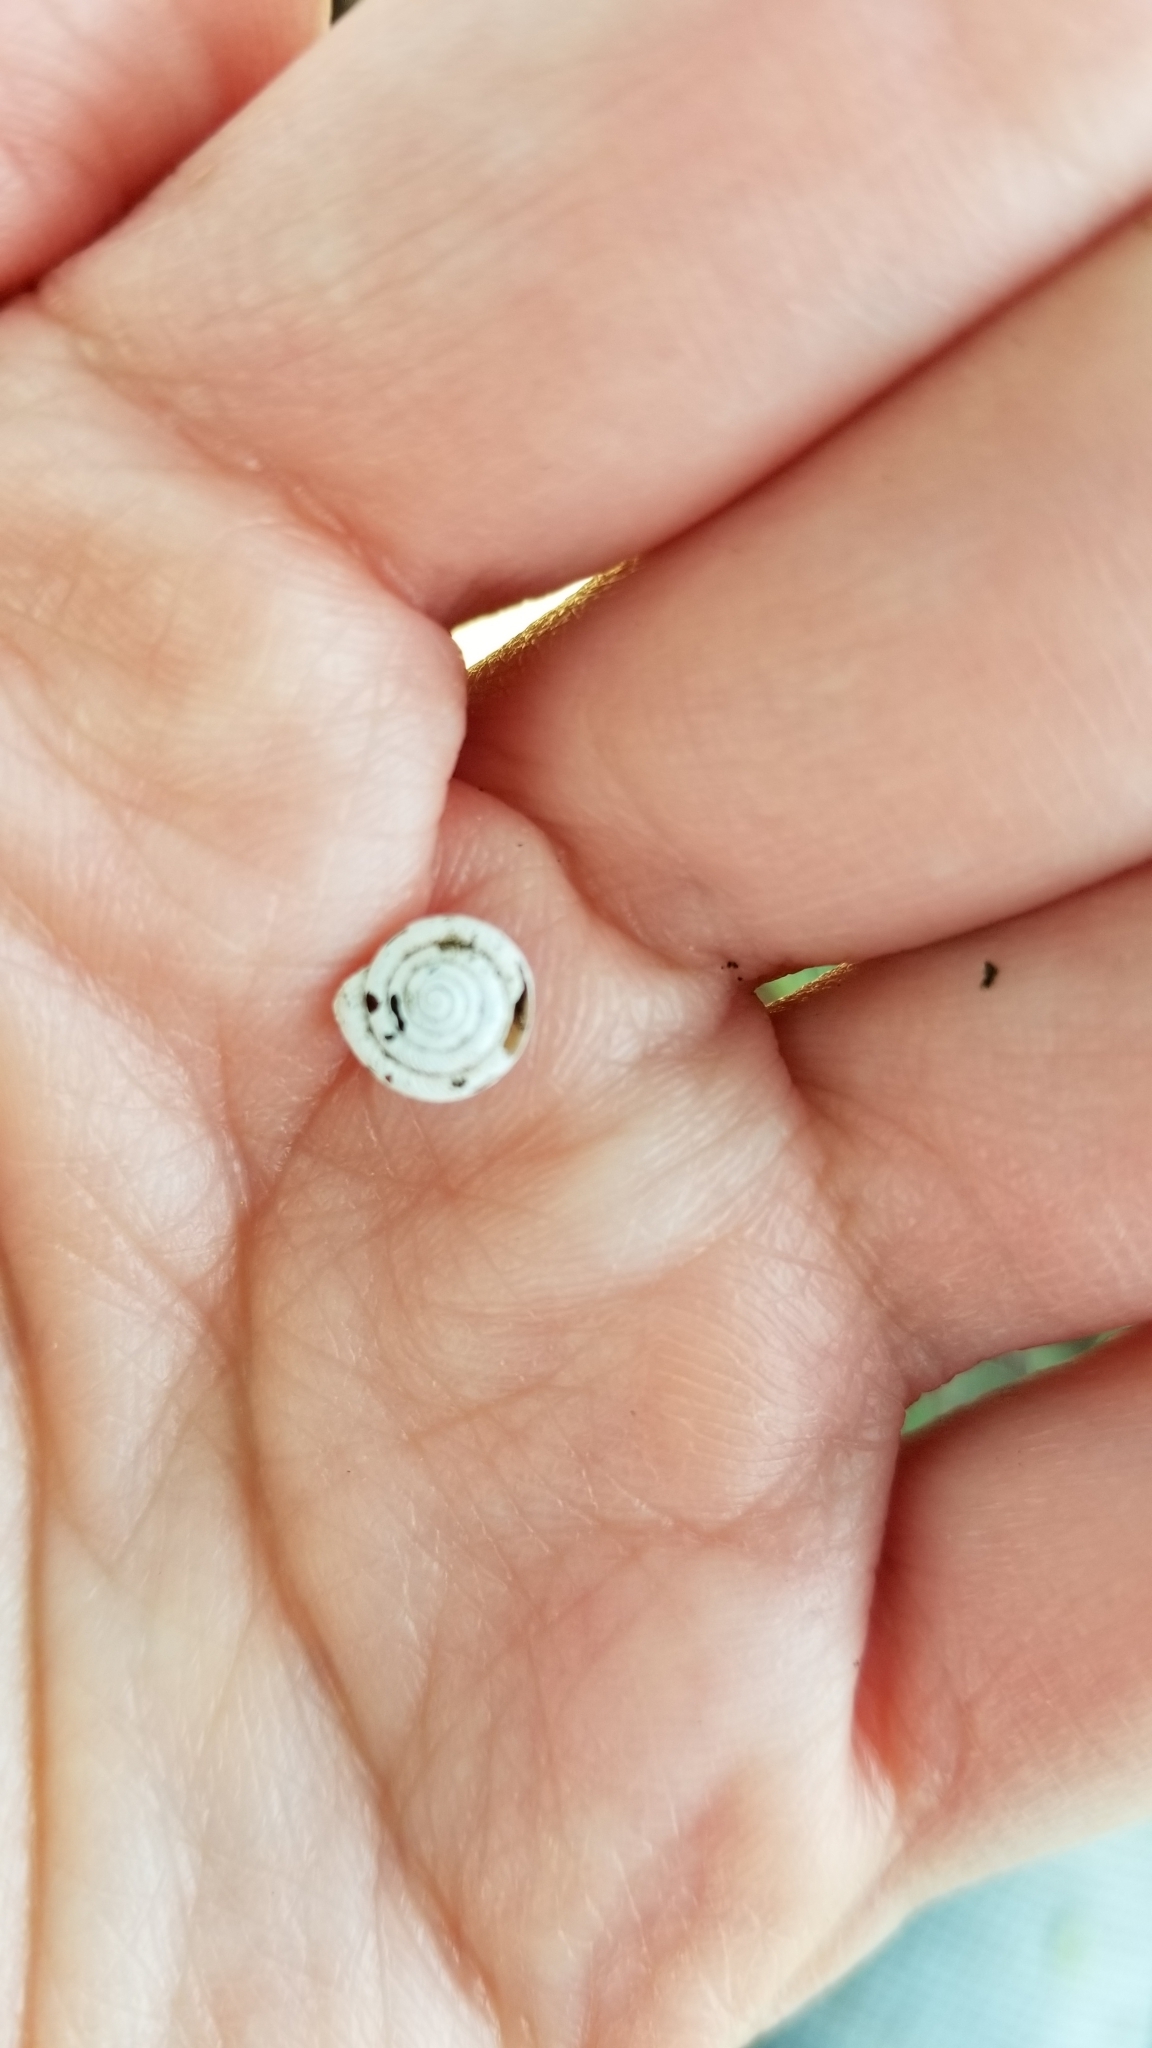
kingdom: Animalia
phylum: Mollusca
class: Gastropoda
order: Stylommatophora
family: Polygyridae
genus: Polygyra
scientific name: Polygyra cereolus
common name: Southern flatcone snail
